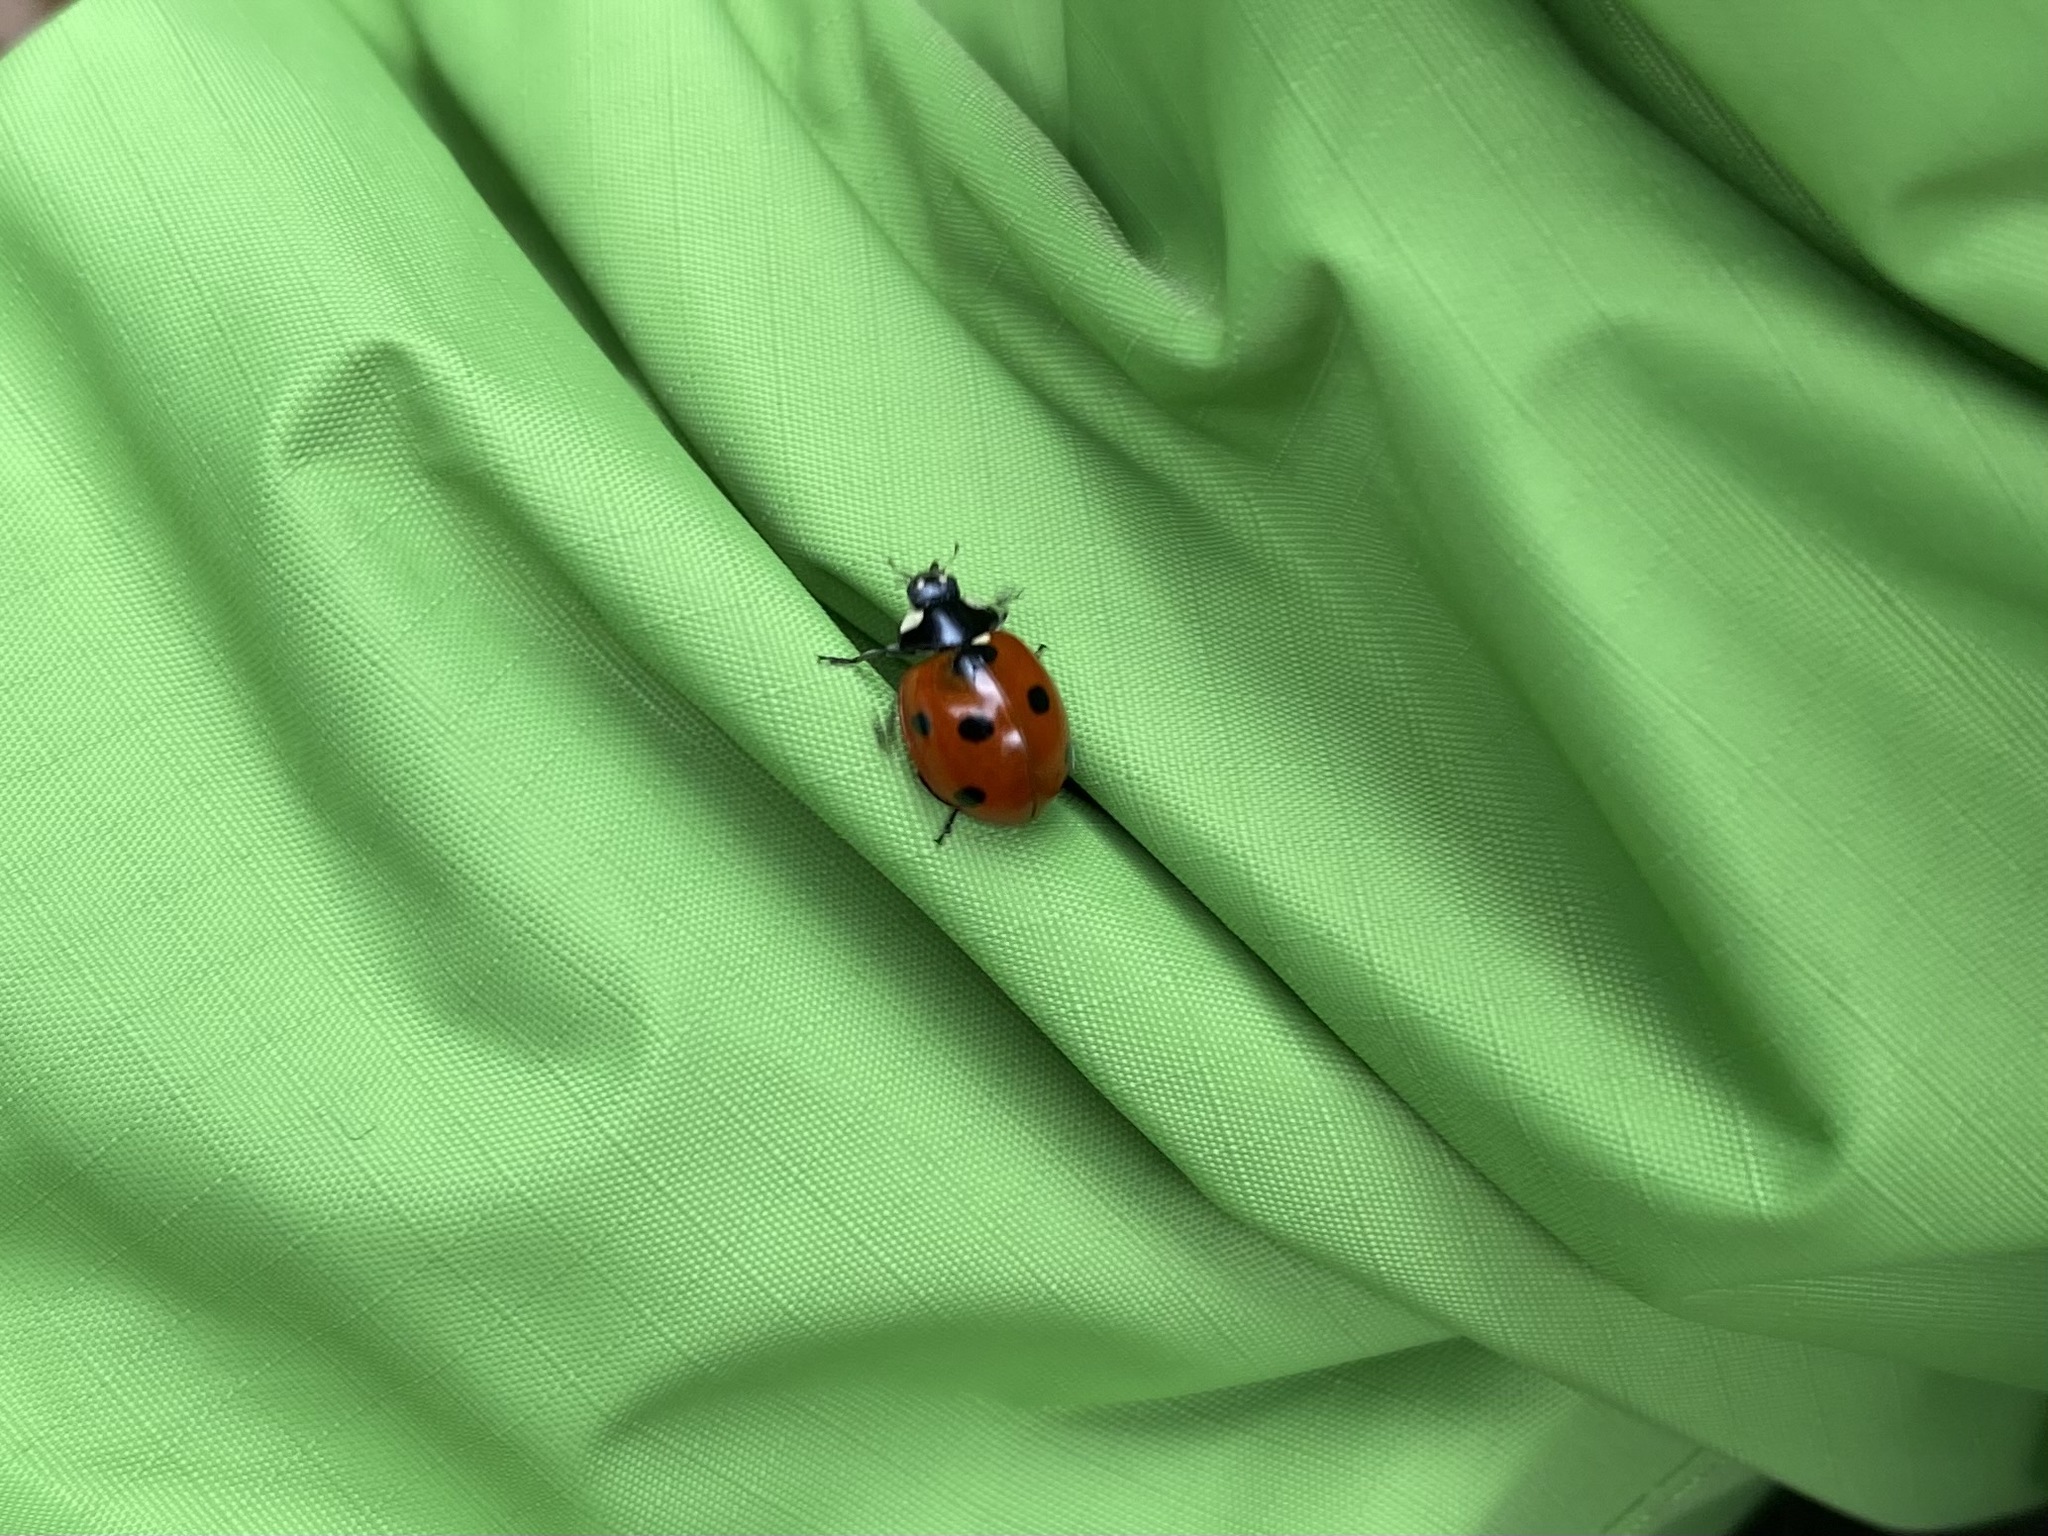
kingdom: Animalia
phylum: Arthropoda
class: Insecta
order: Coleoptera
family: Coccinellidae
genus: Coccinella
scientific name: Coccinella septempunctata
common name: Sevenspotted lady beetle
